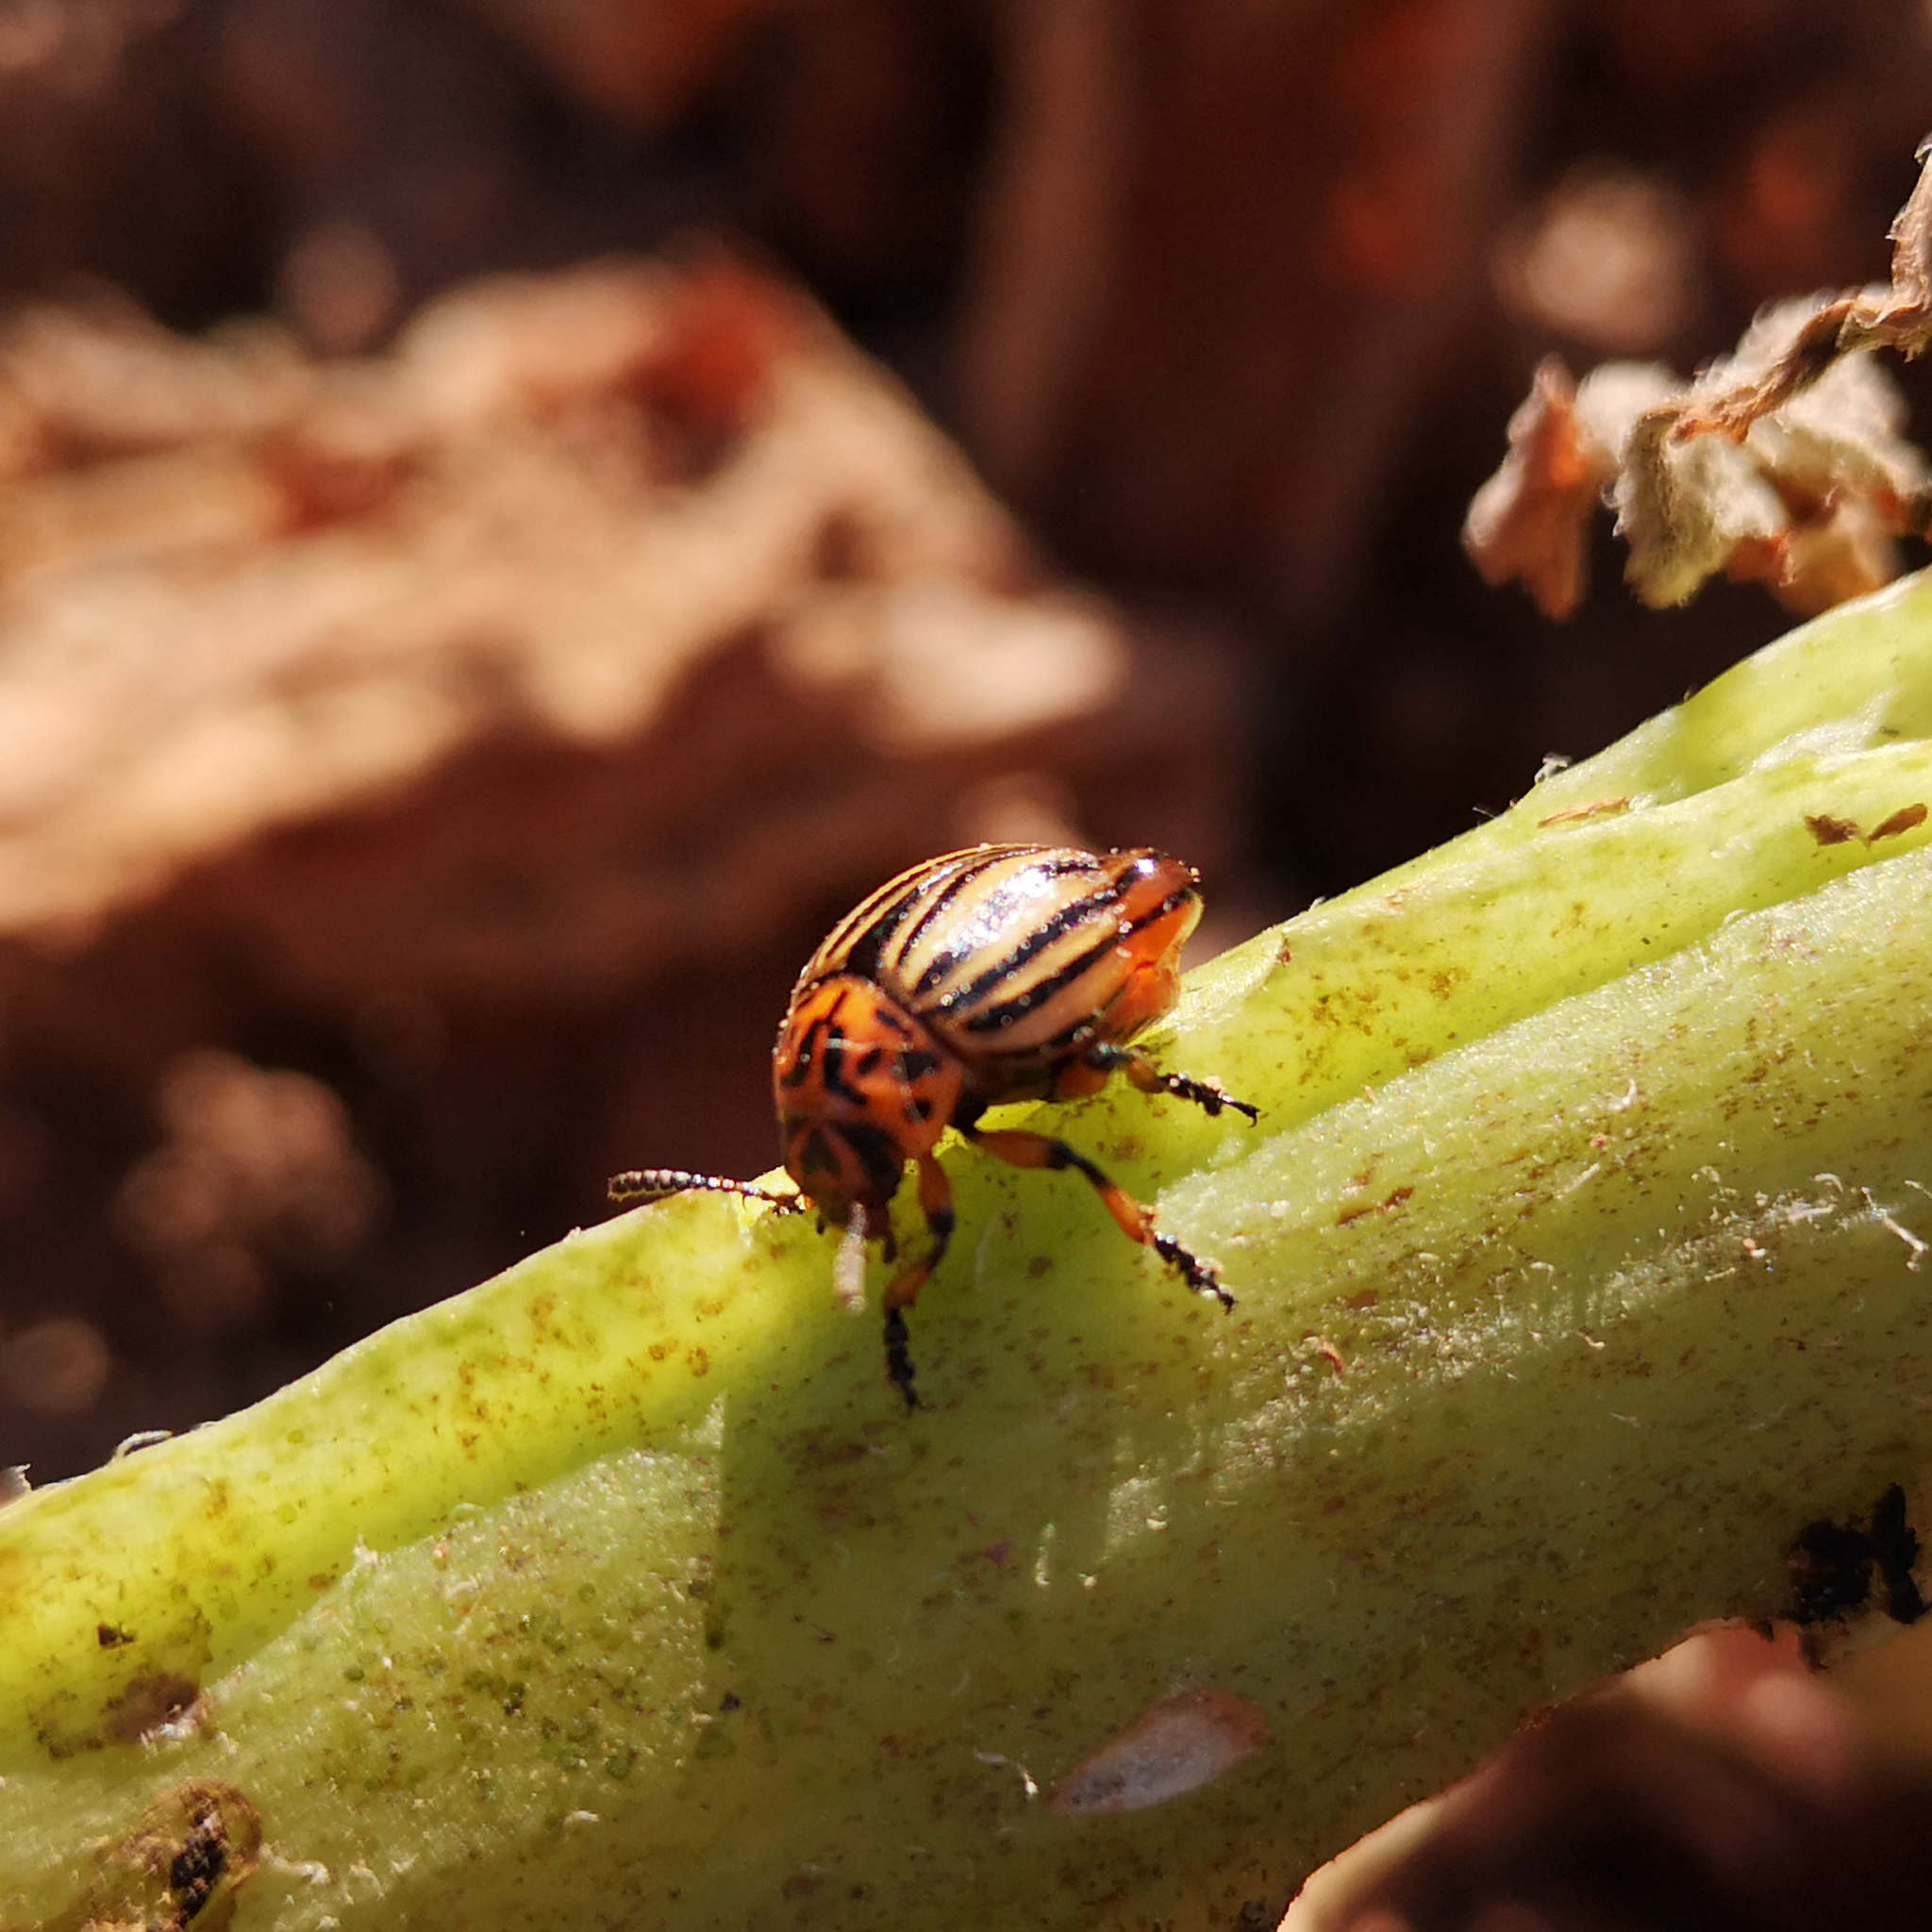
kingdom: Animalia
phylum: Arthropoda
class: Insecta
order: Coleoptera
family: Chrysomelidae
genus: Leptinotarsa
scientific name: Leptinotarsa decemlineata
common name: Colorado potato beetle
